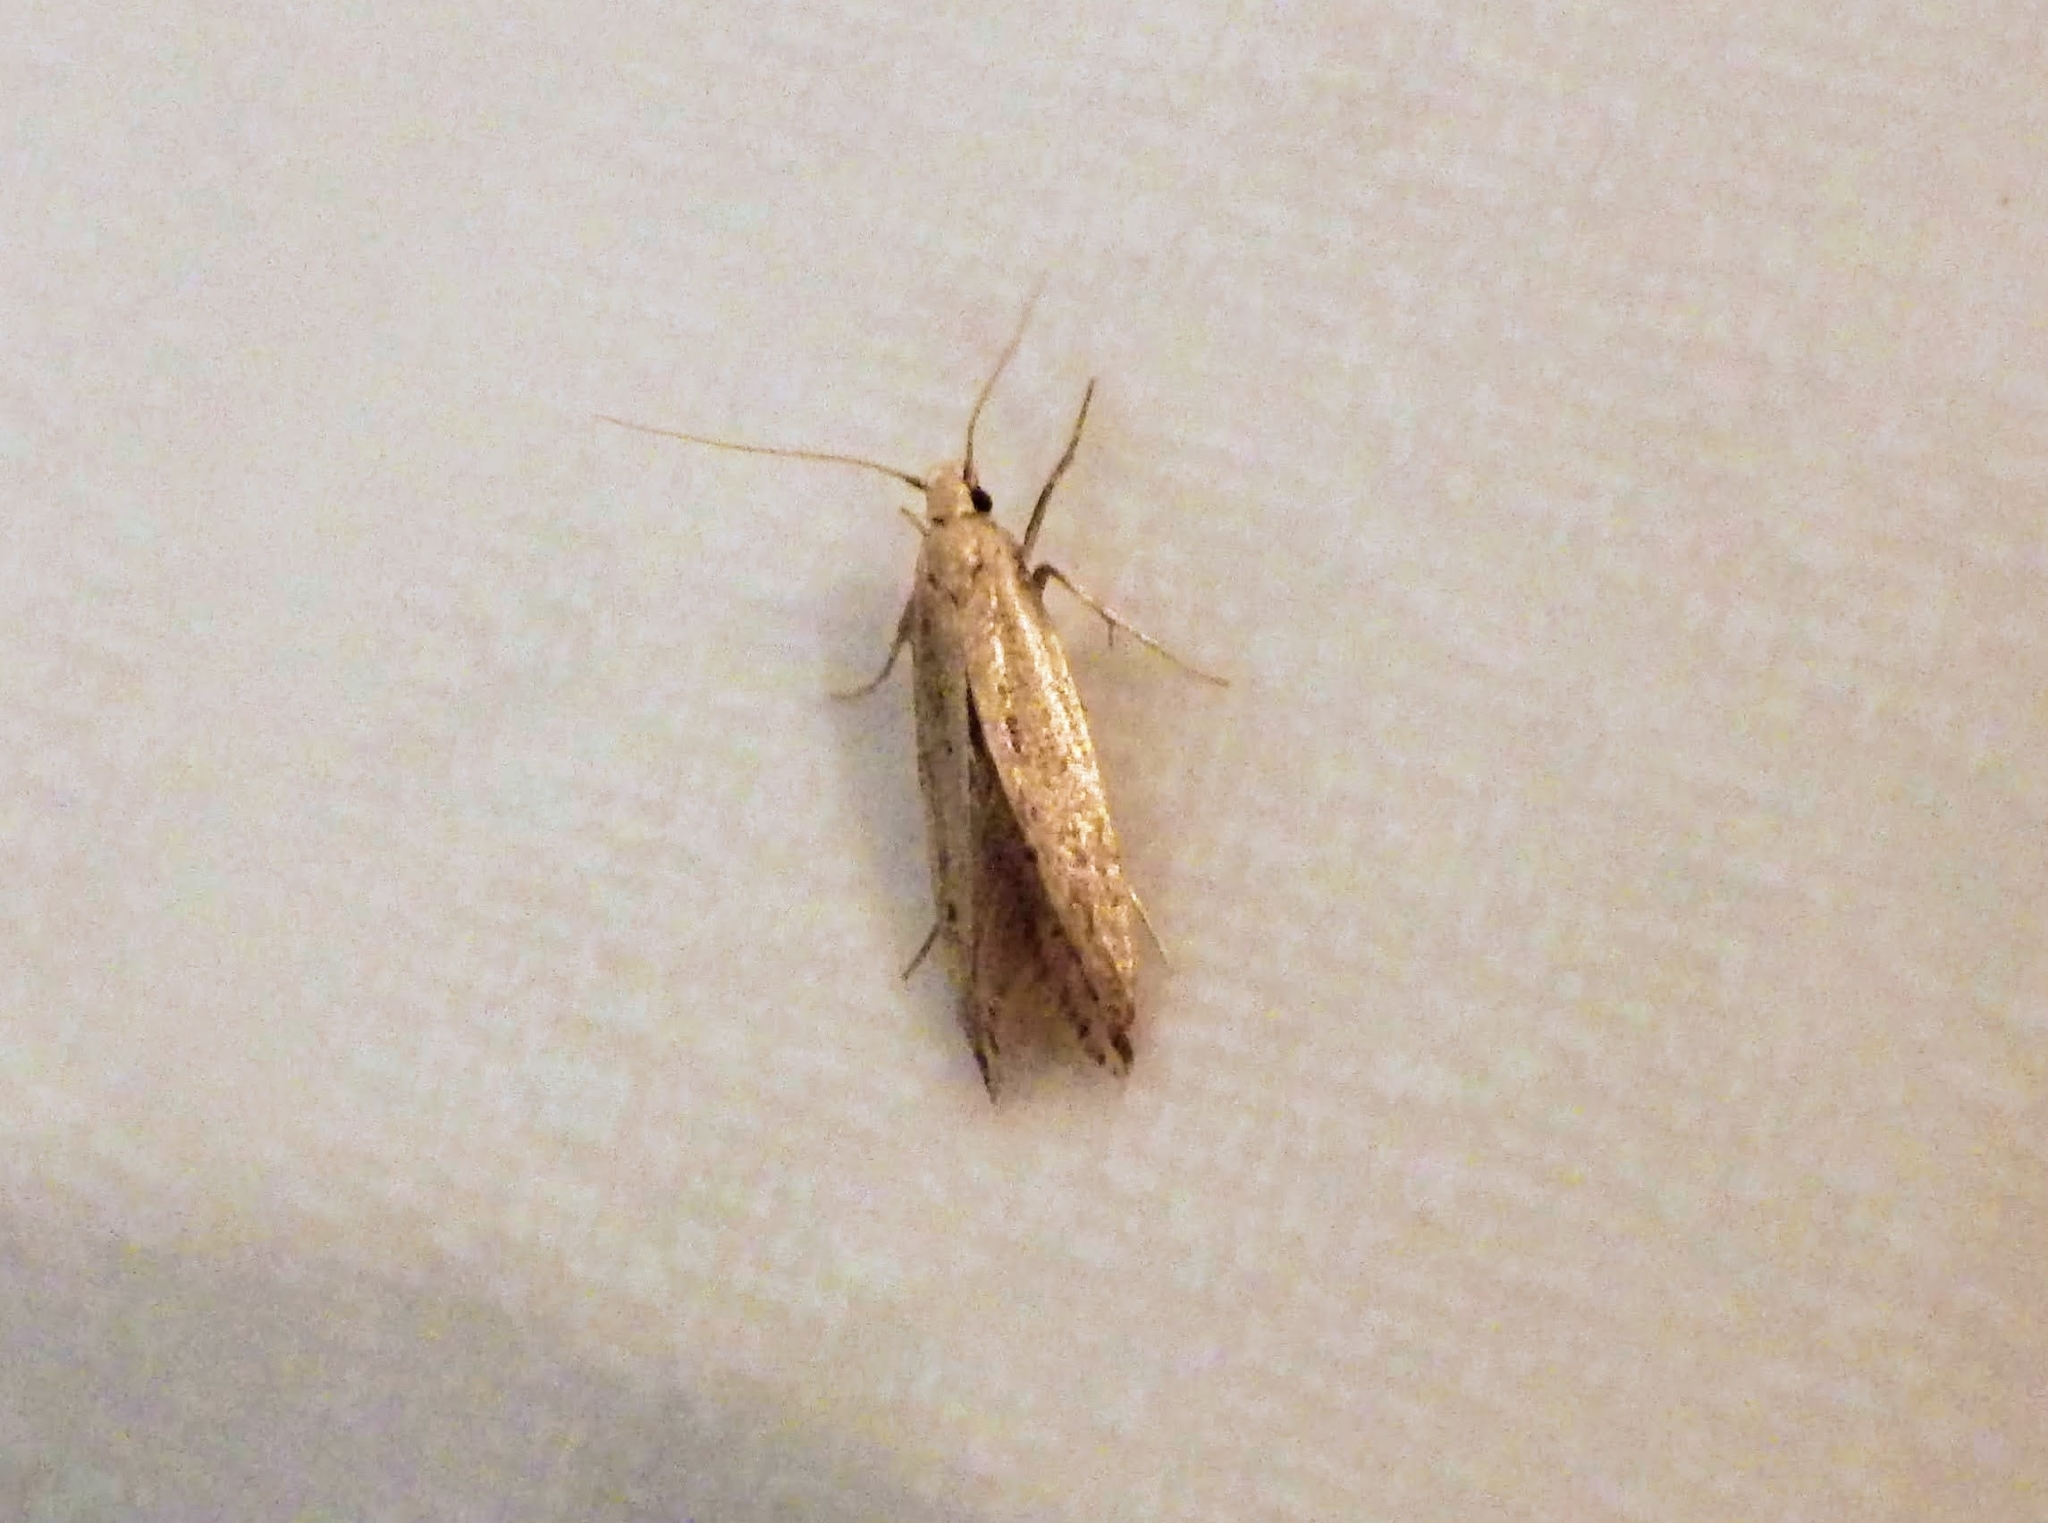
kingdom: Animalia
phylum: Arthropoda
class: Insecta
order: Lepidoptera
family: Gelechiidae
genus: Sitotroga
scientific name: Sitotroga cerealella
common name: Angoumois grain moth
